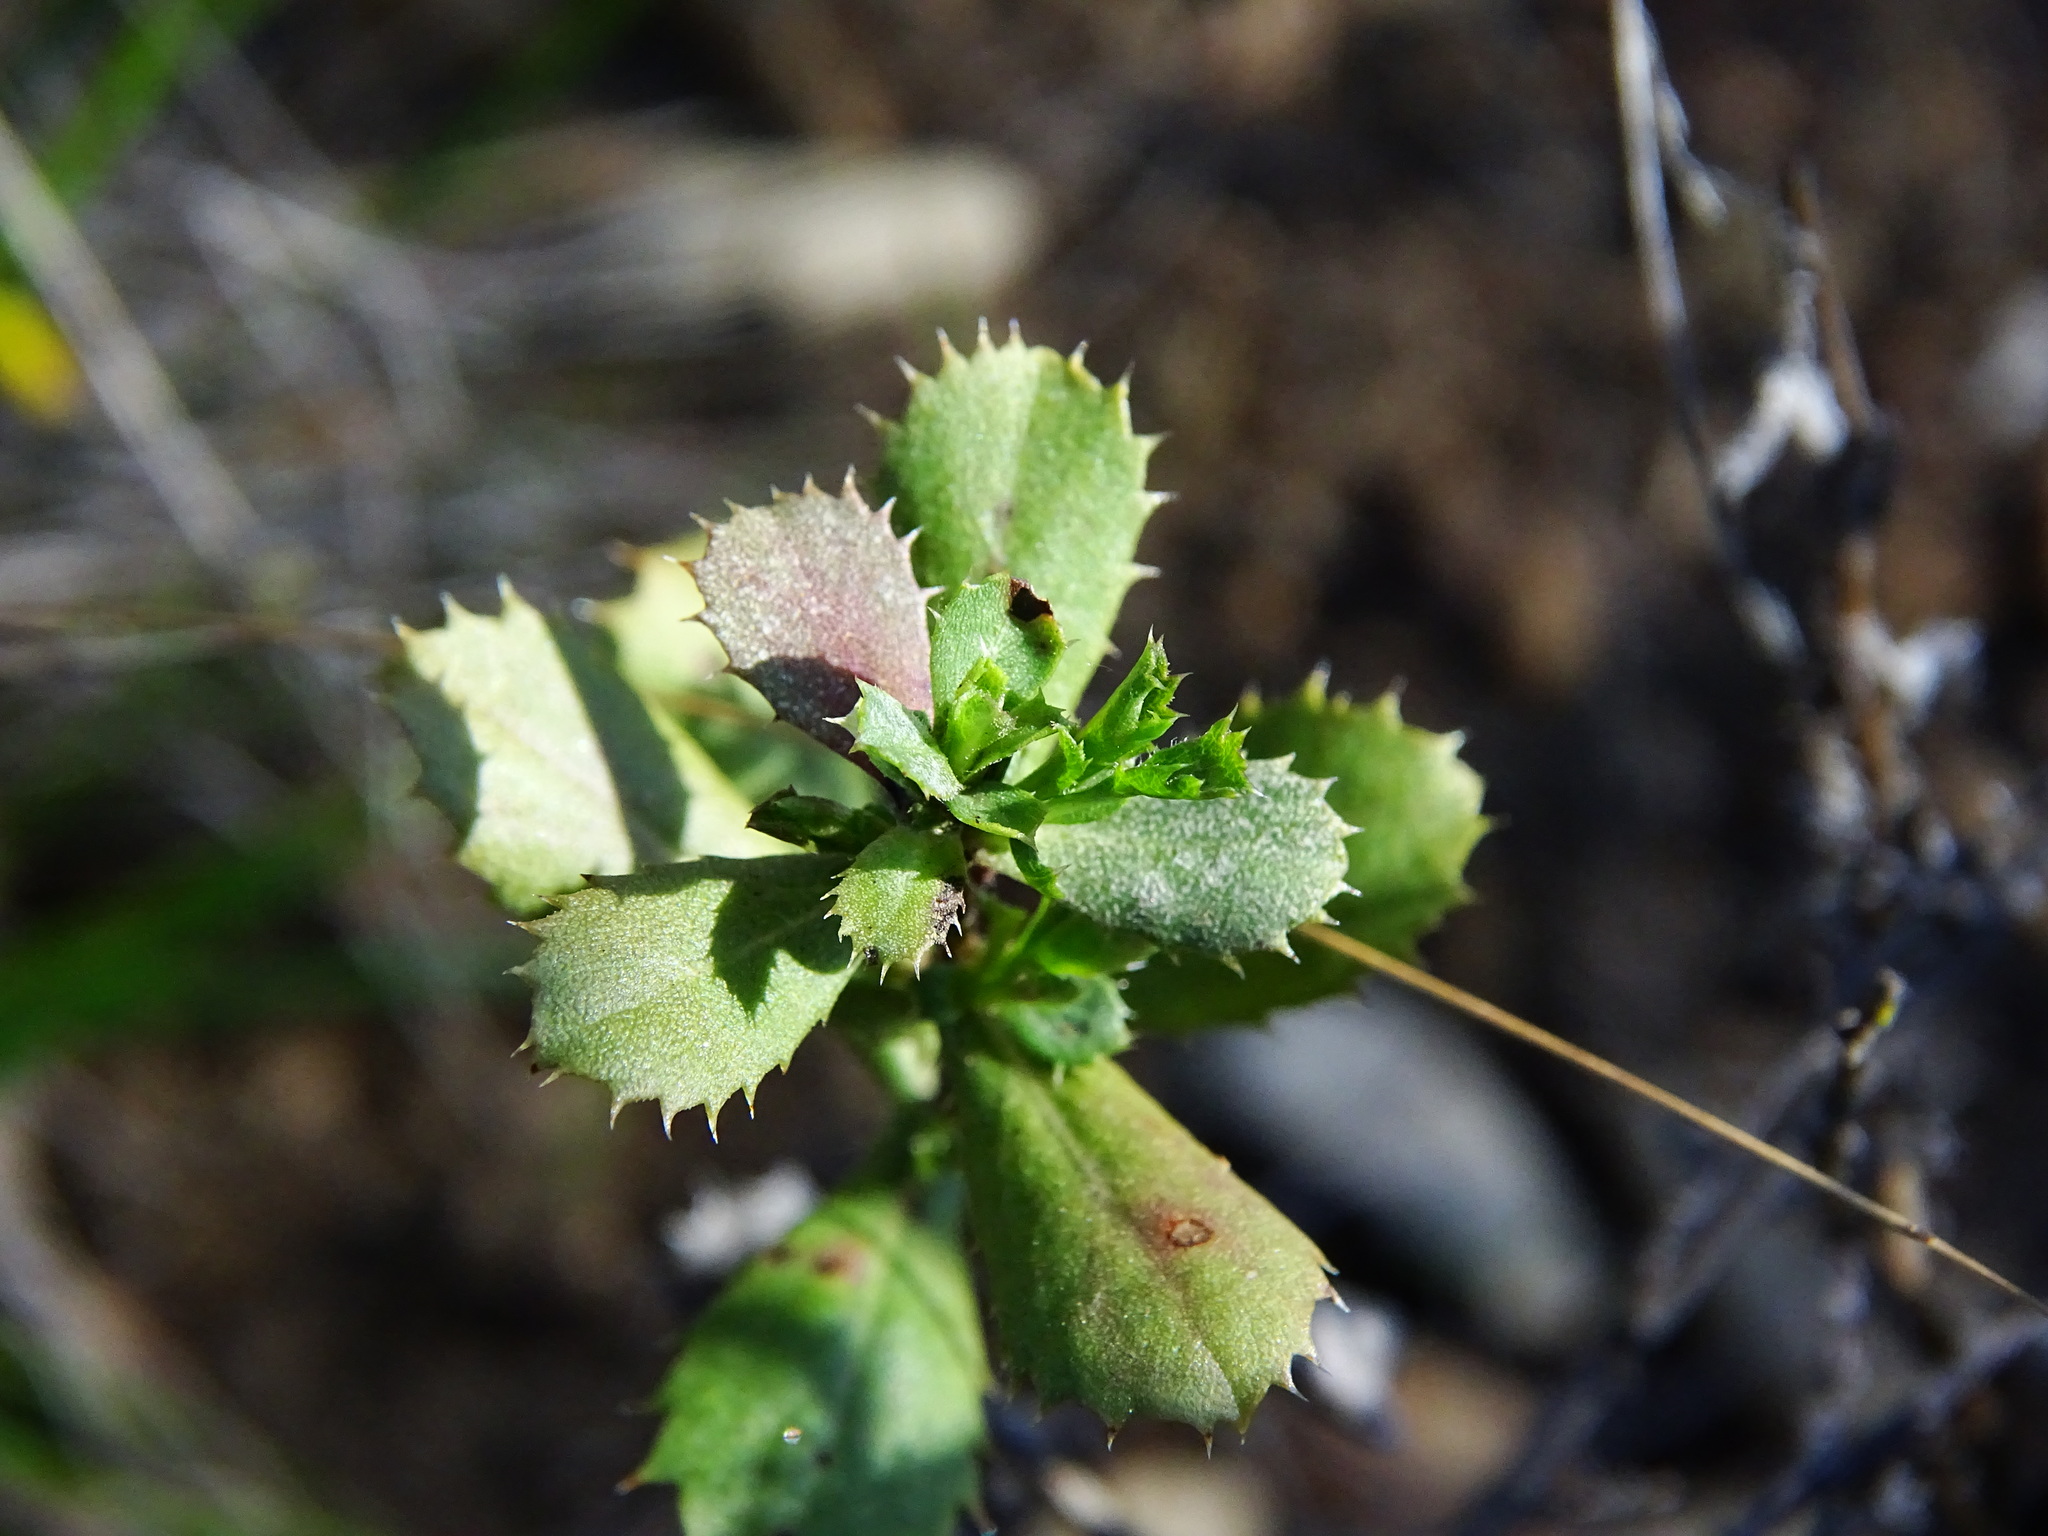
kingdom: Plantae
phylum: Tracheophyta
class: Magnoliopsida
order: Asterales
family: Asteraceae
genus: Hazardia
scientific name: Hazardia squarrosa
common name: Saw-tooth goldenbush
